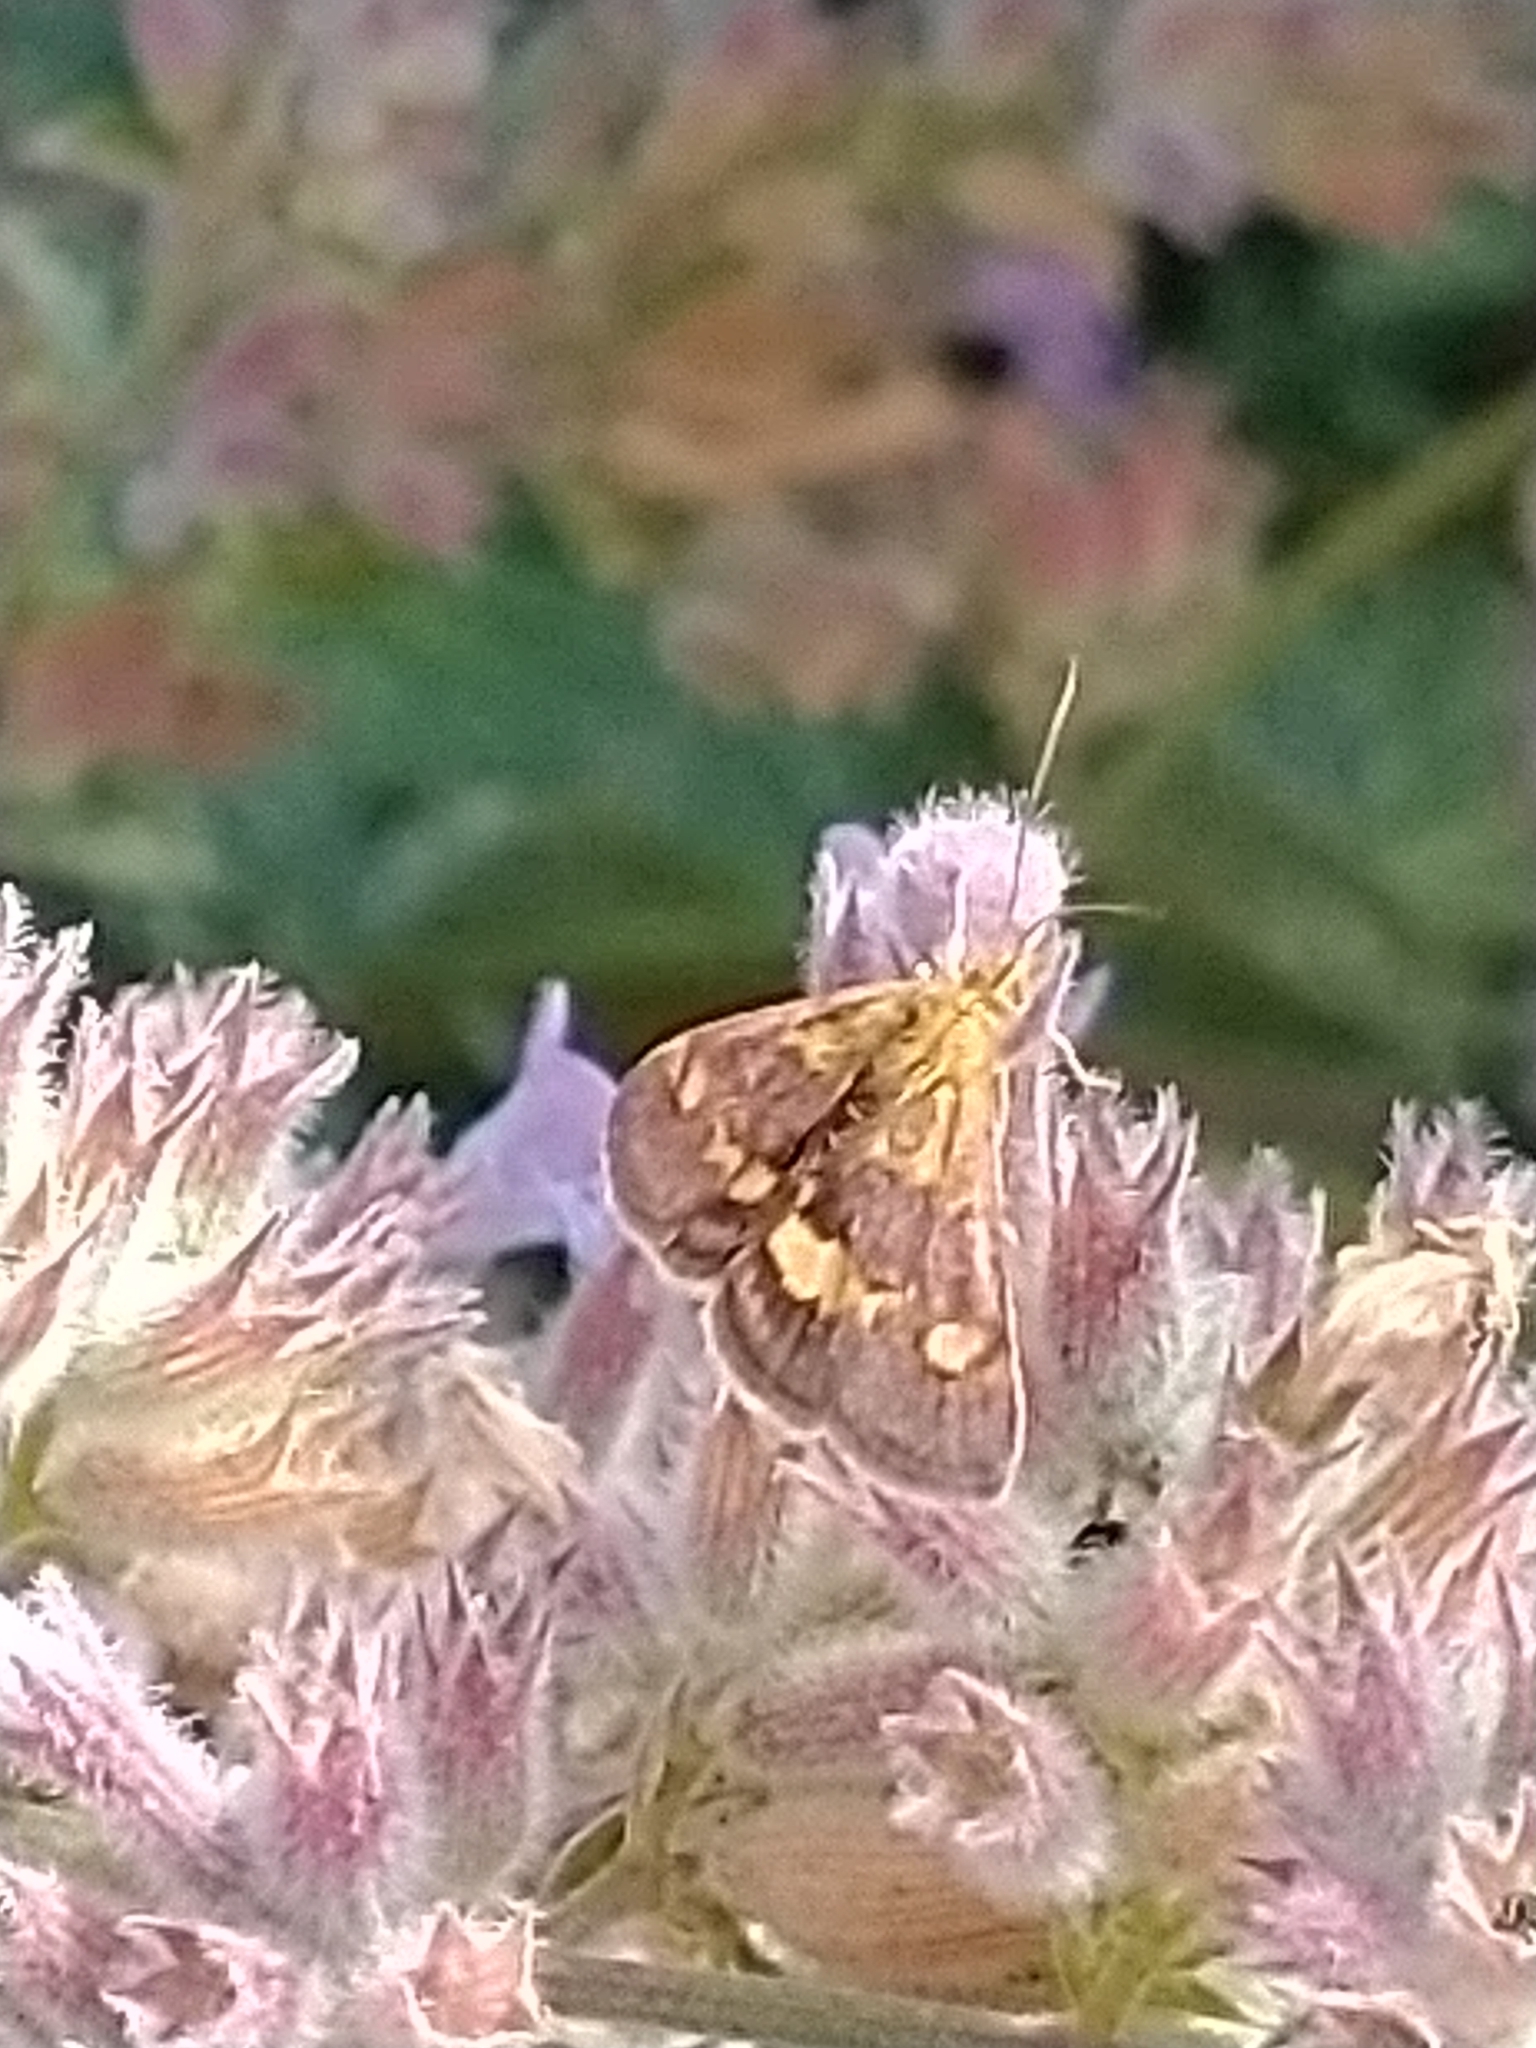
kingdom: Animalia
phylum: Arthropoda
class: Insecta
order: Lepidoptera
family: Crambidae
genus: Pyrausta
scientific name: Pyrausta aurata
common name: Small purple & gold
